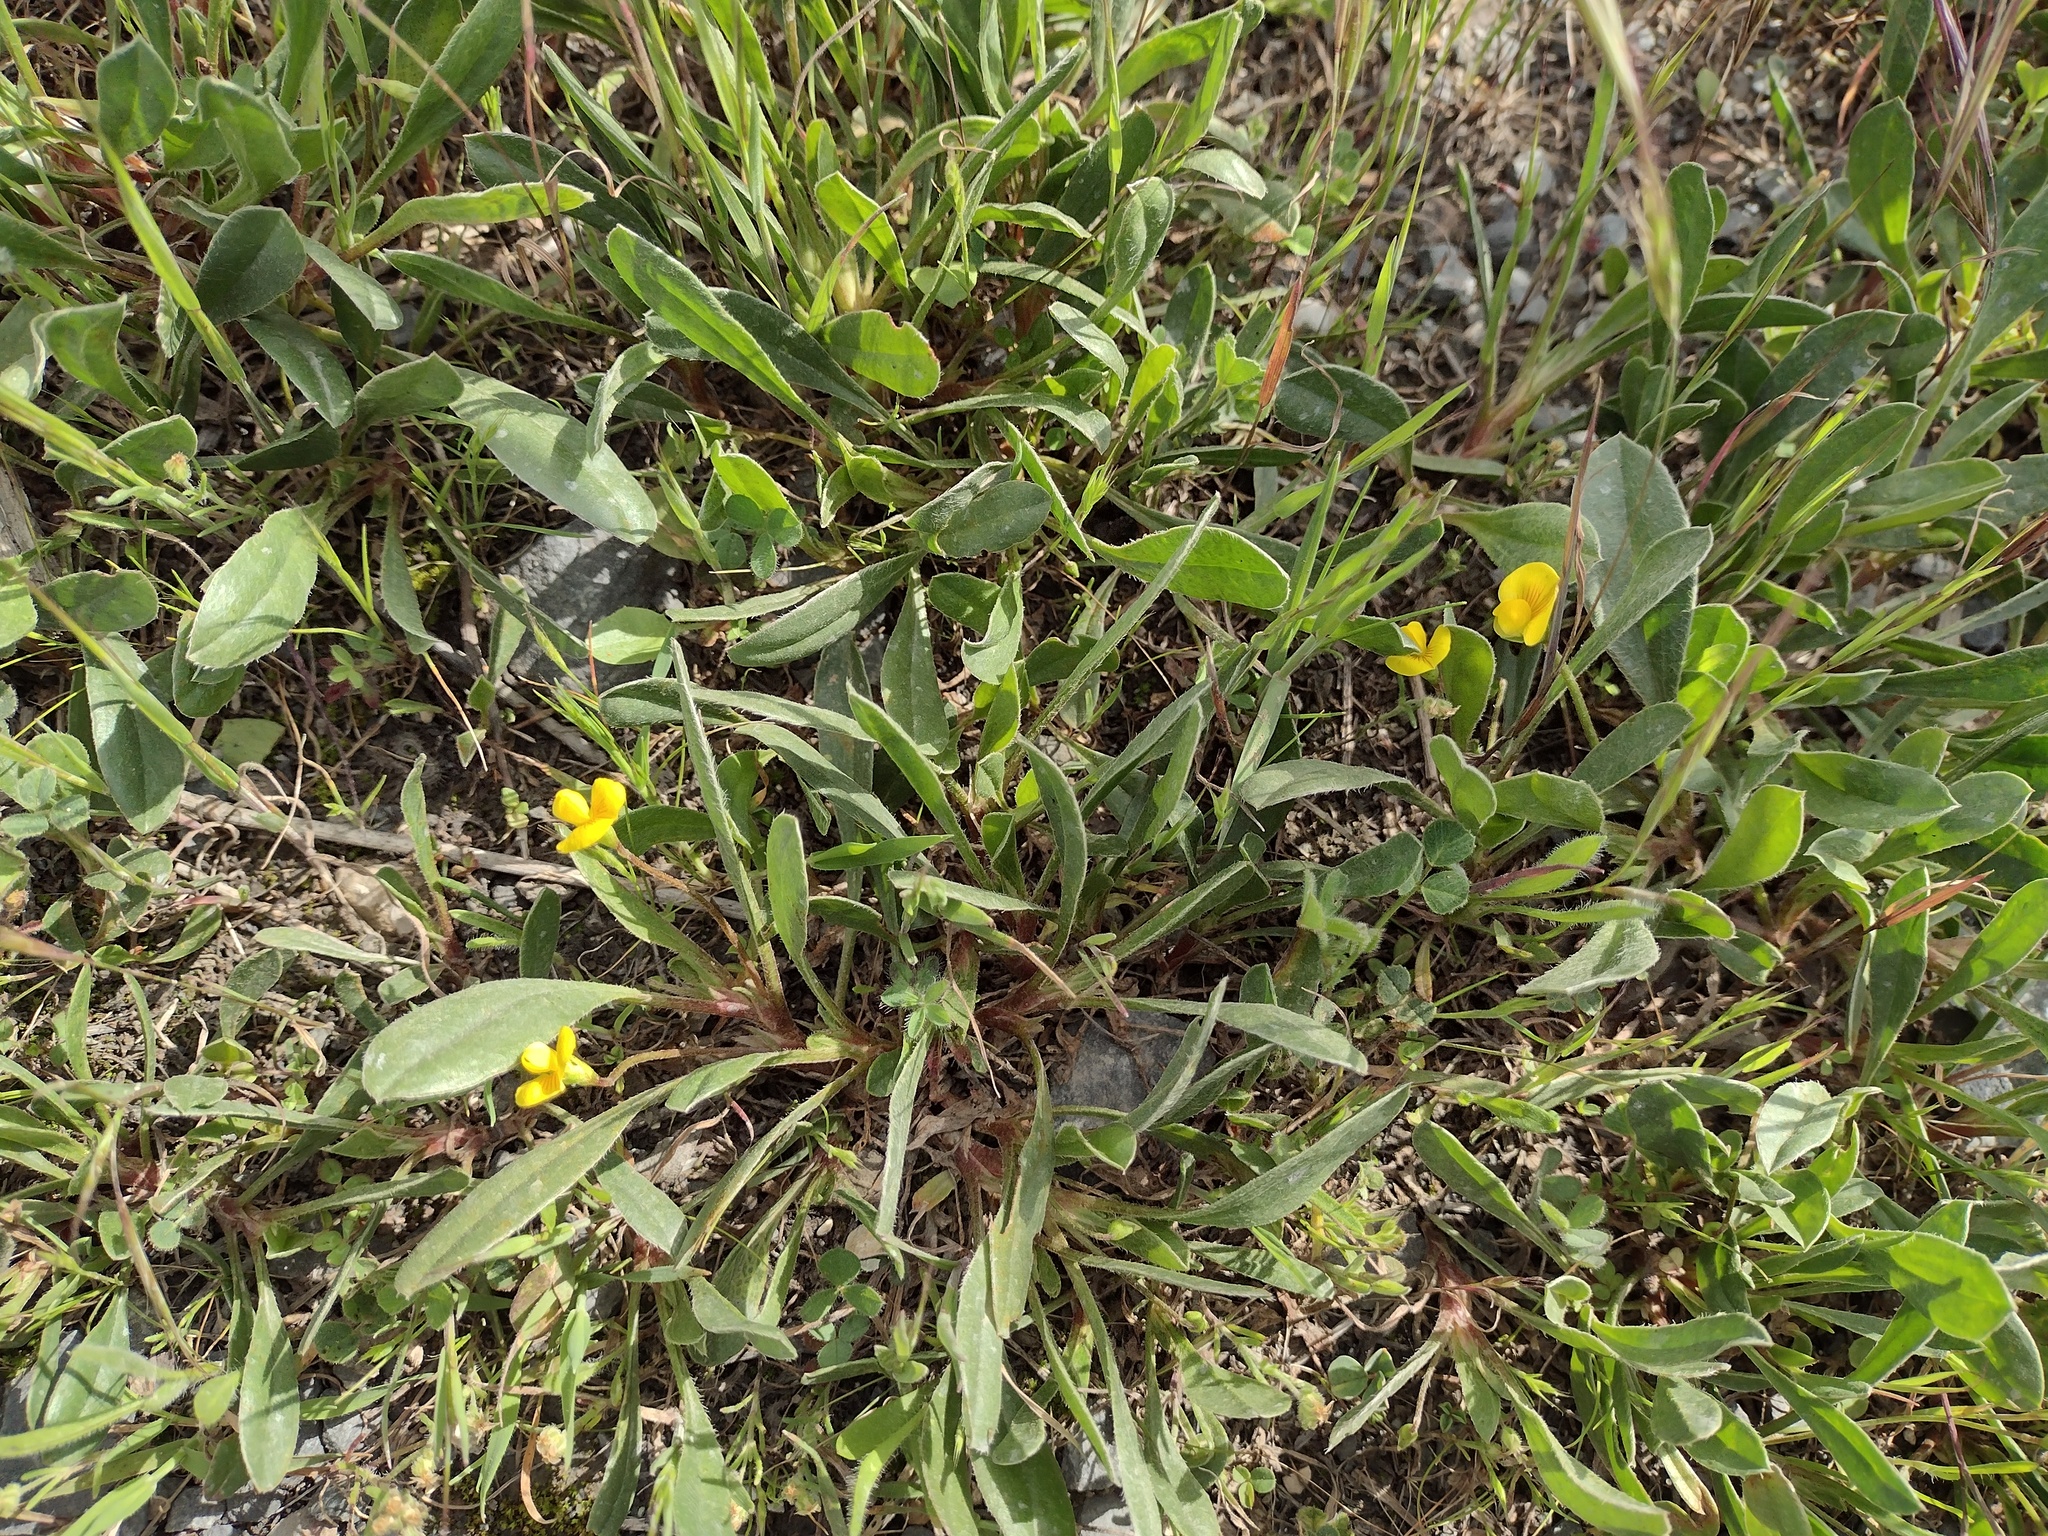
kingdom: Plantae
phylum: Tracheophyta
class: Magnoliopsida
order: Fabales
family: Fabaceae
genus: Scorpiurus
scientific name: Scorpiurus muricatus
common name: Caterpillar-plant
